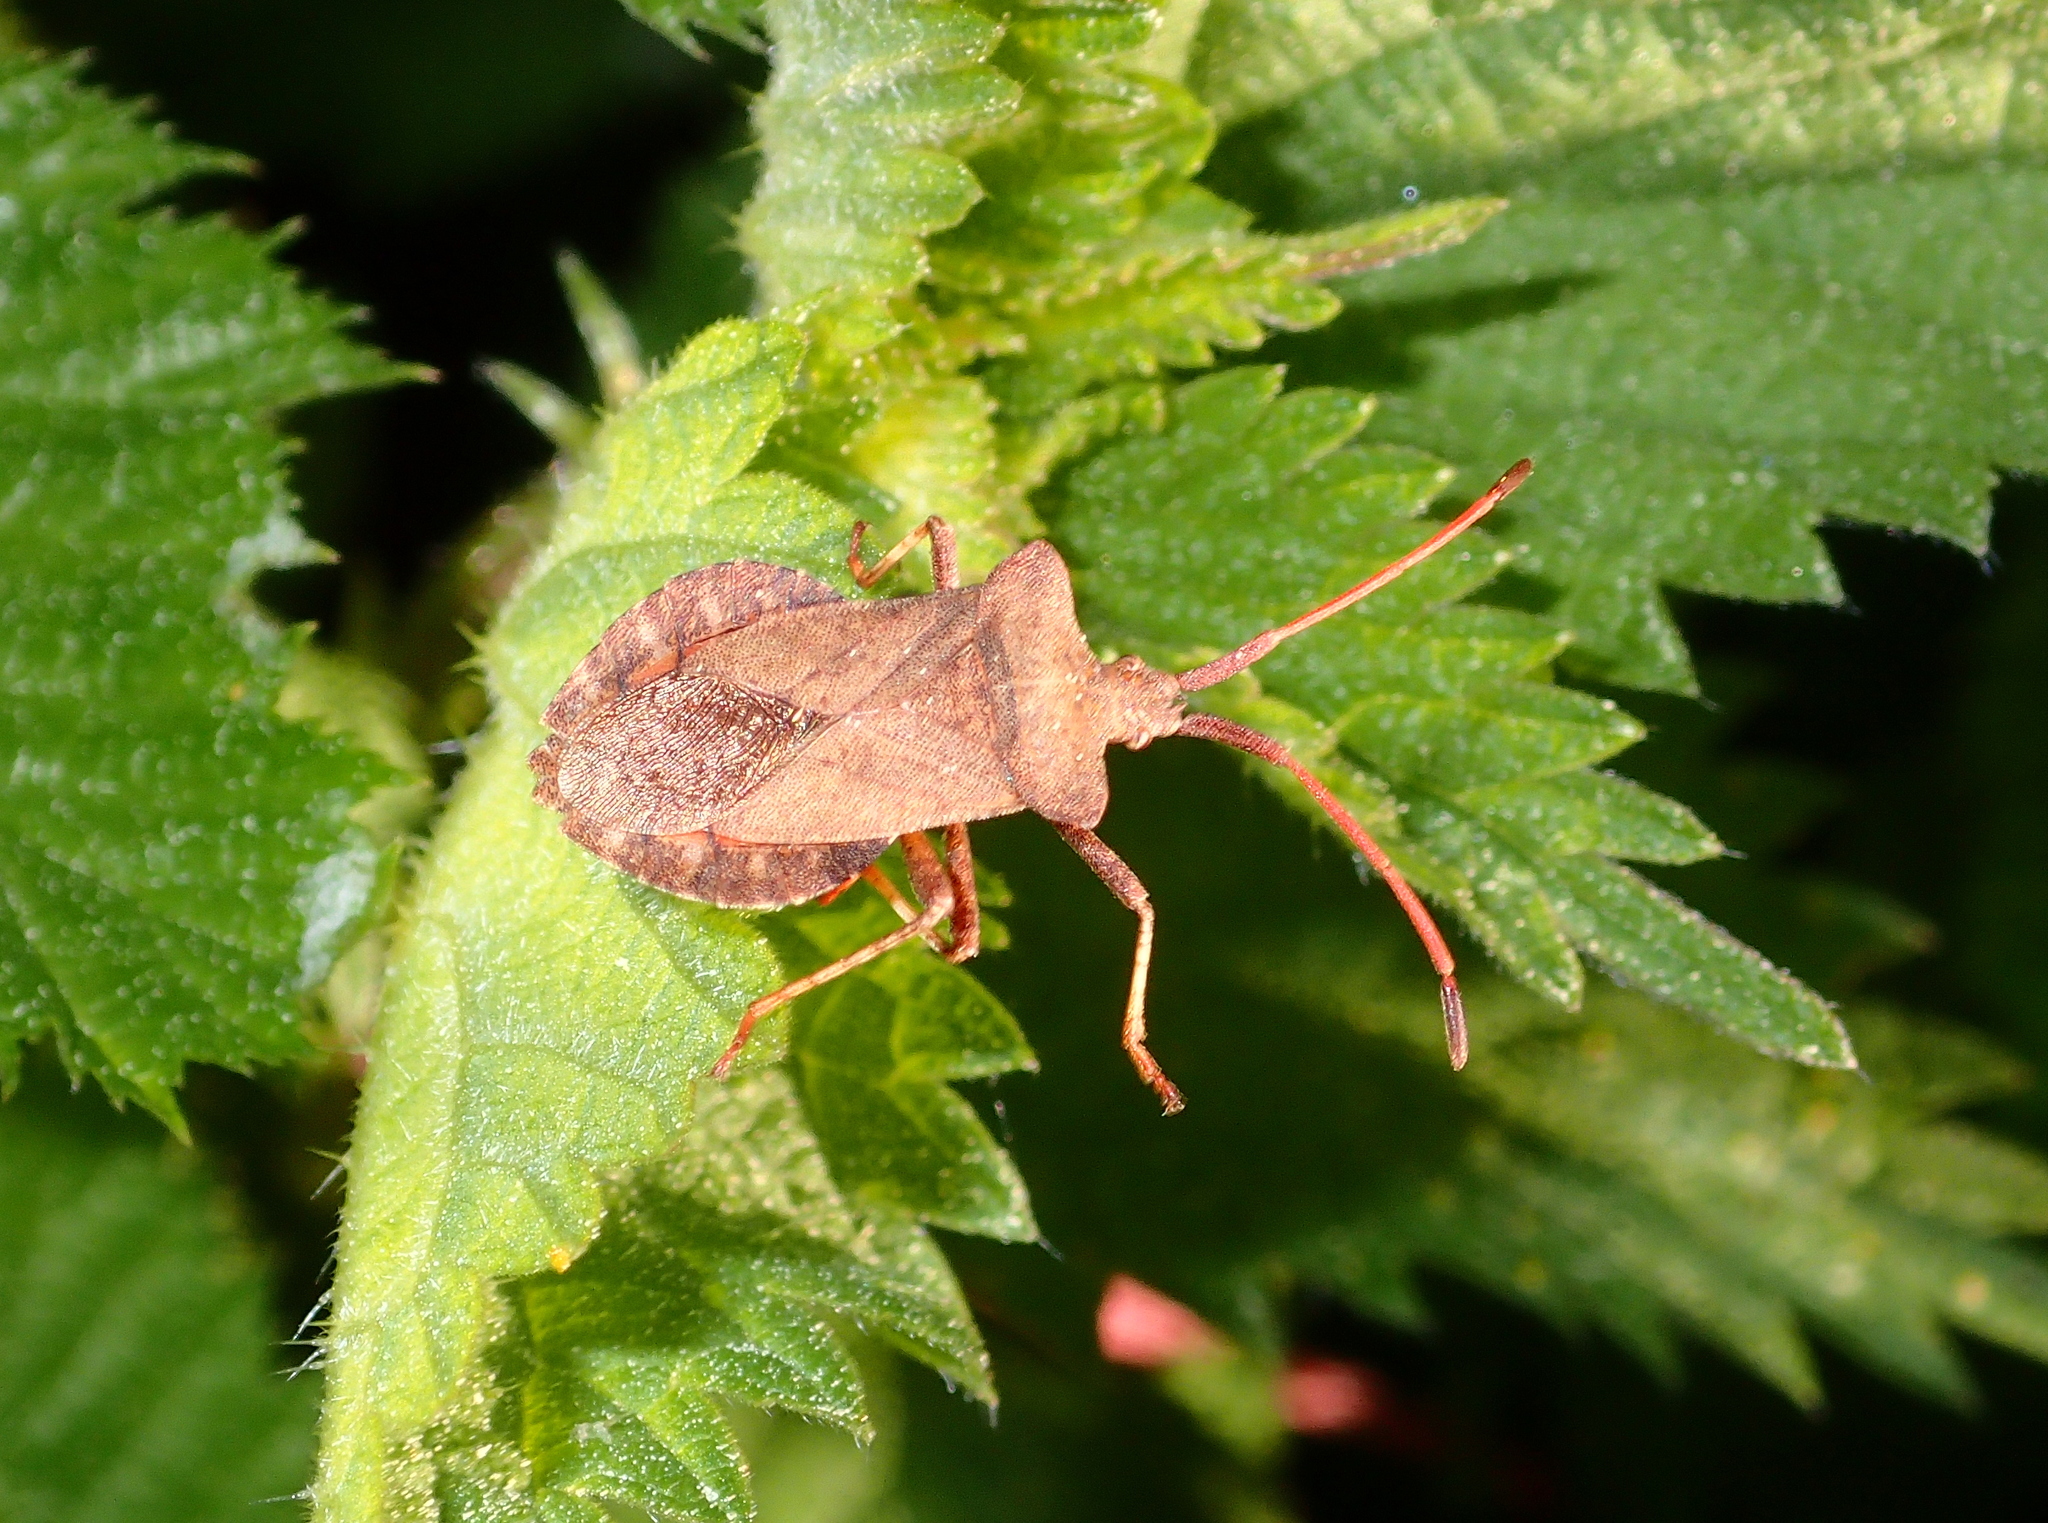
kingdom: Animalia
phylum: Arthropoda
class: Insecta
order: Hemiptera
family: Coreidae
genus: Coreus
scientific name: Coreus marginatus
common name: Dock bug
